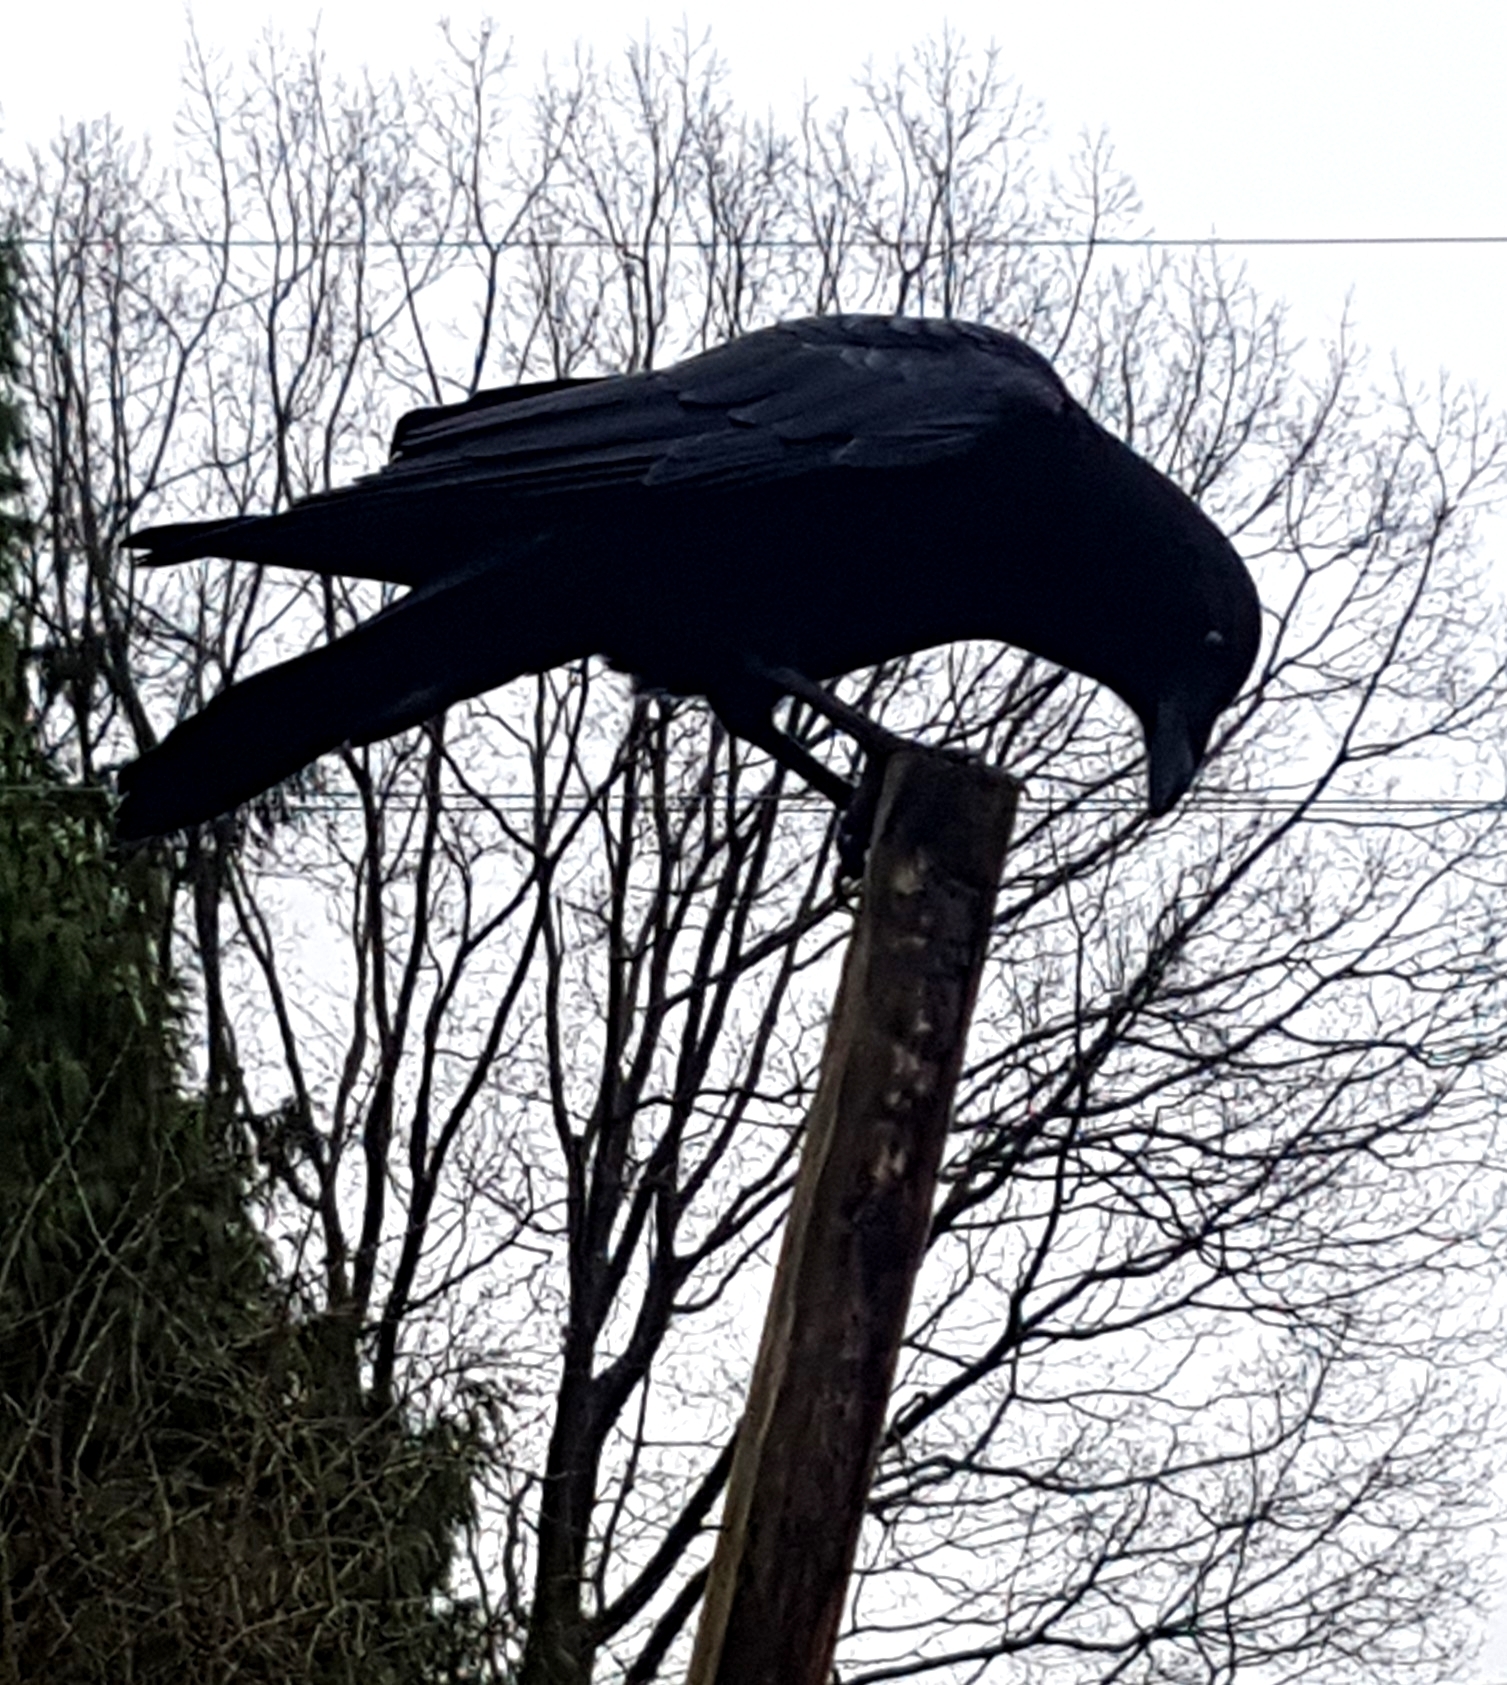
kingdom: Animalia
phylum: Chordata
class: Aves
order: Passeriformes
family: Corvidae
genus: Corvus
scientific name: Corvus brachyrhynchos
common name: American crow
